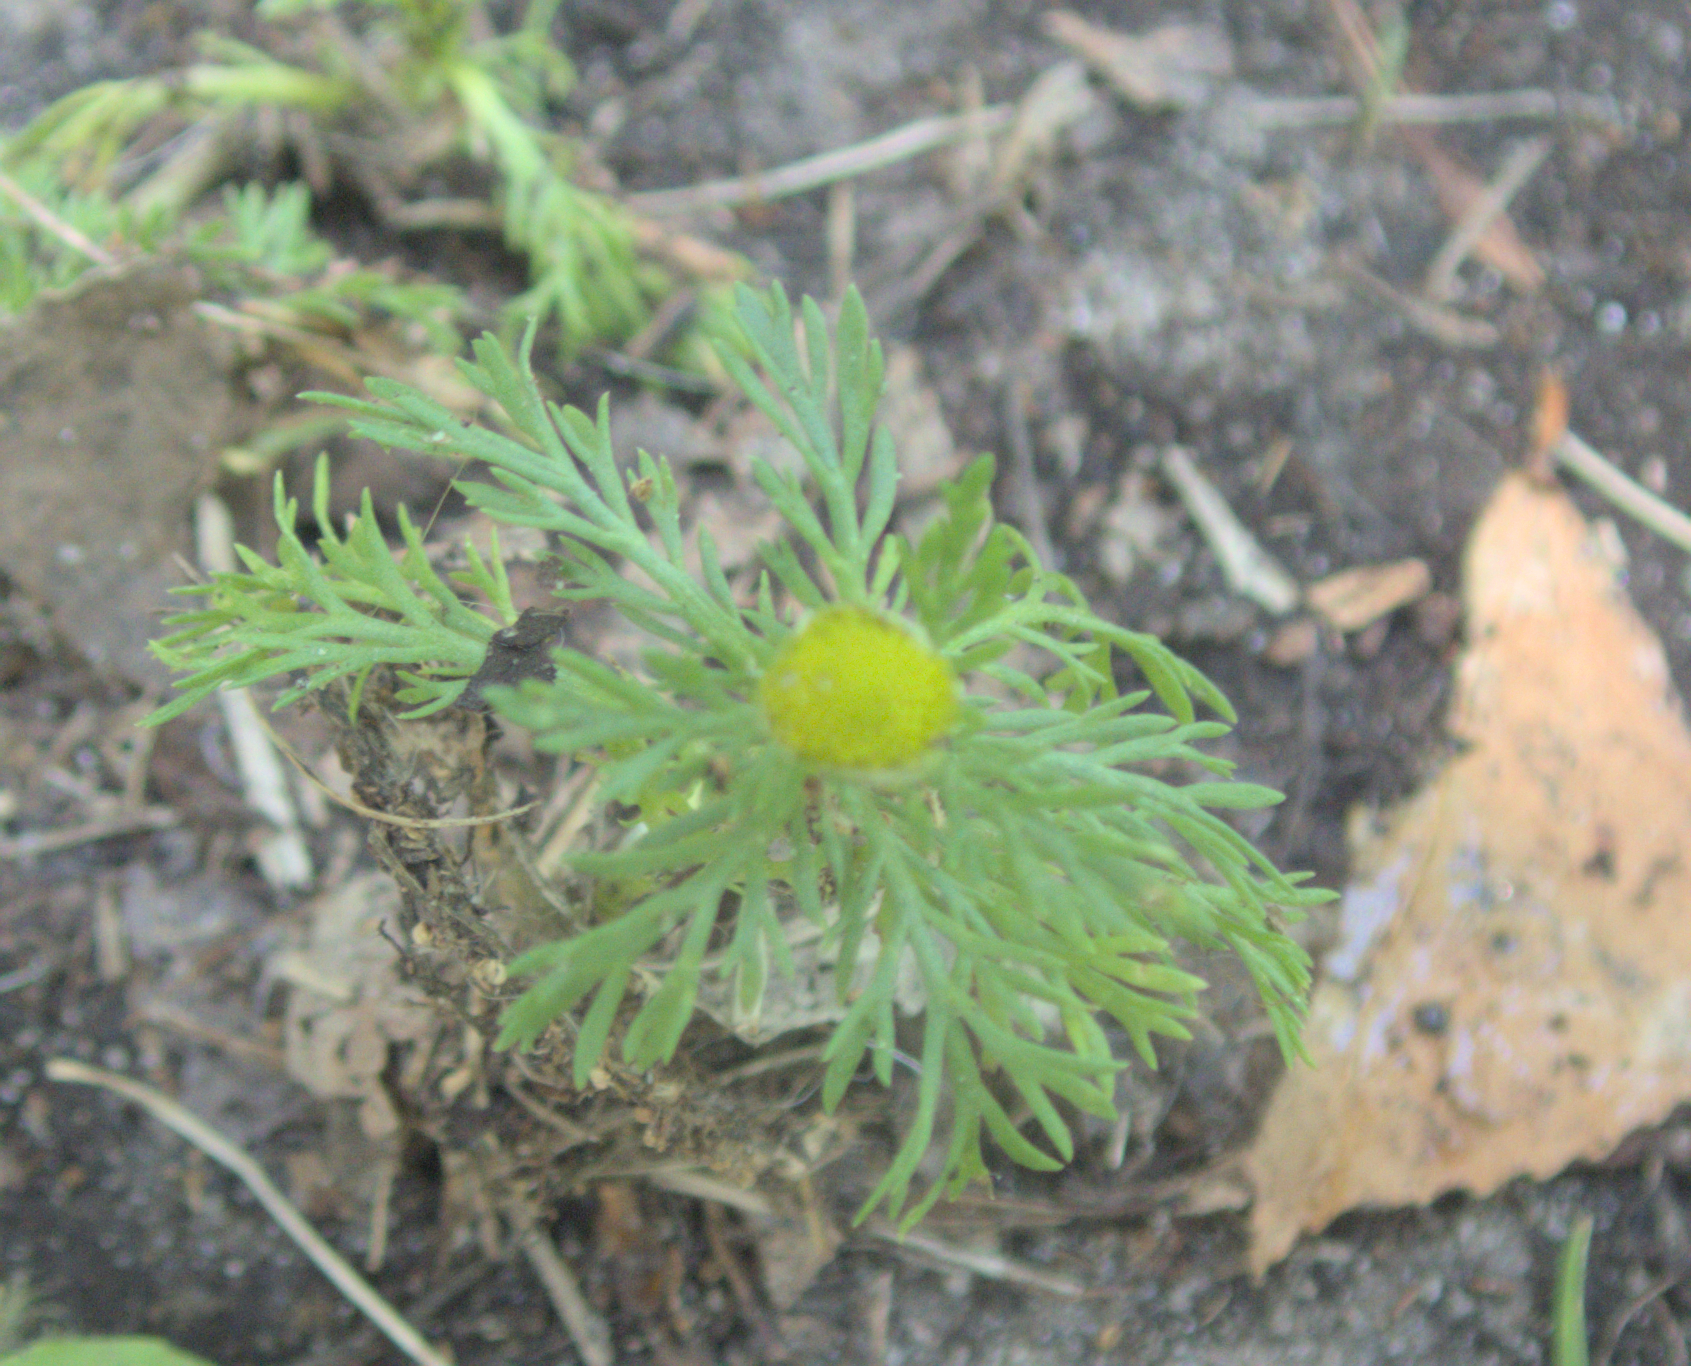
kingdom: Plantae
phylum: Tracheophyta
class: Magnoliopsida
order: Asterales
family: Asteraceae
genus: Matricaria
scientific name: Matricaria discoidea
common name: Disc mayweed
